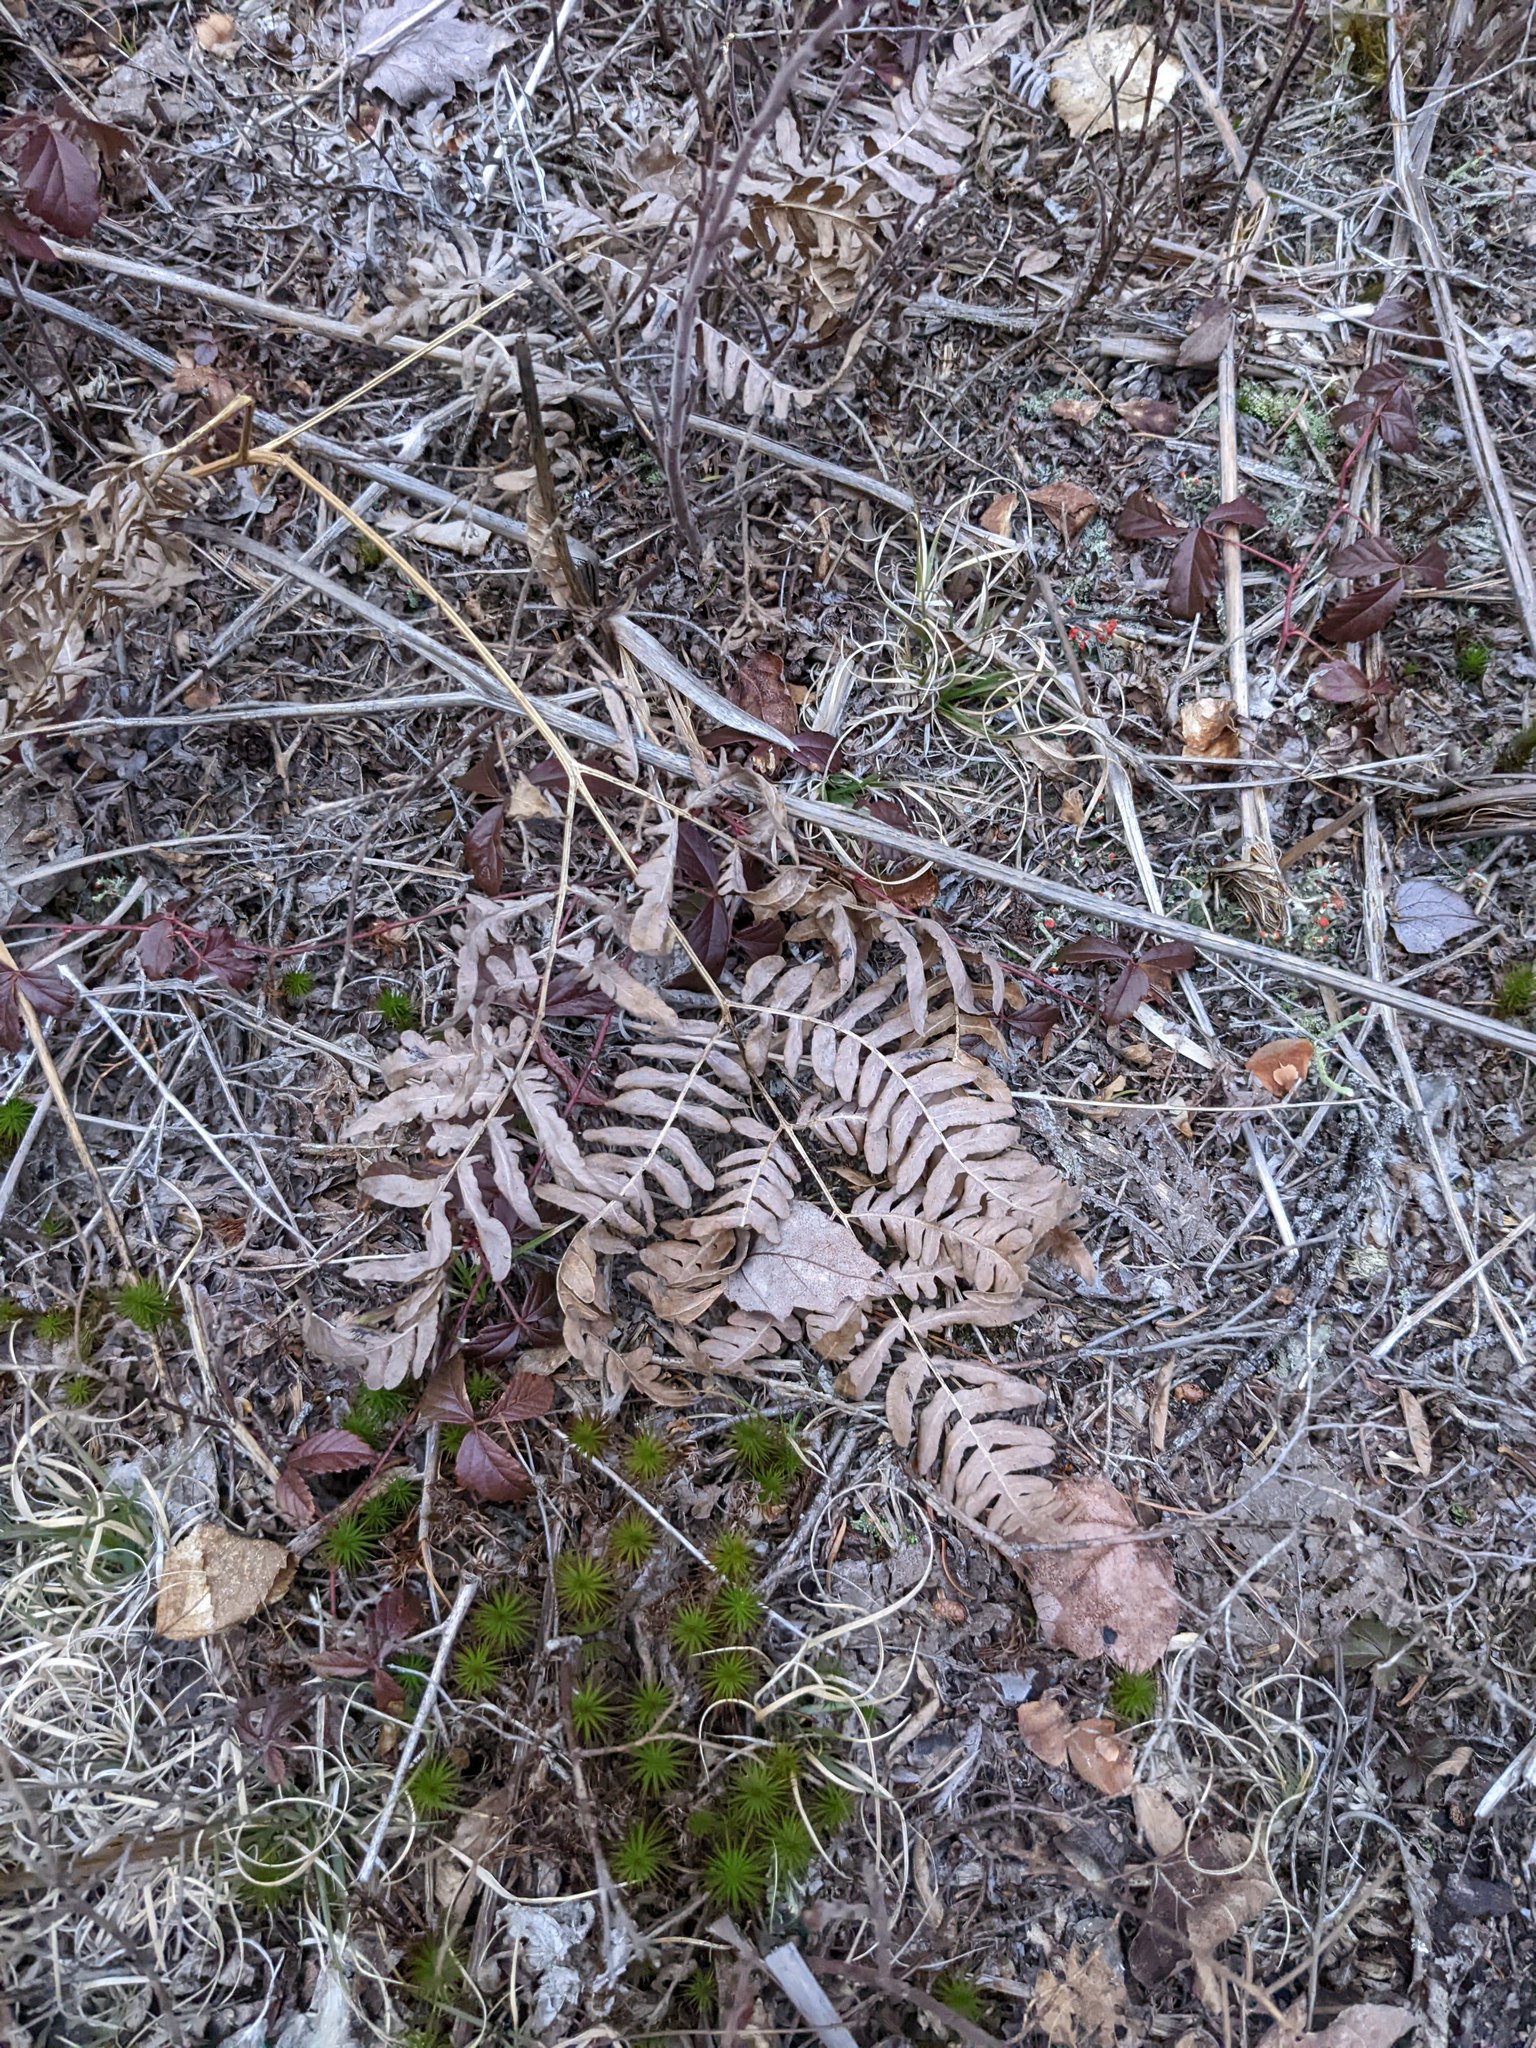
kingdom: Plantae
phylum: Tracheophyta
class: Polypodiopsida
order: Polypodiales
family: Dennstaedtiaceae
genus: Pteridium
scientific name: Pteridium aquilinum
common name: Bracken
